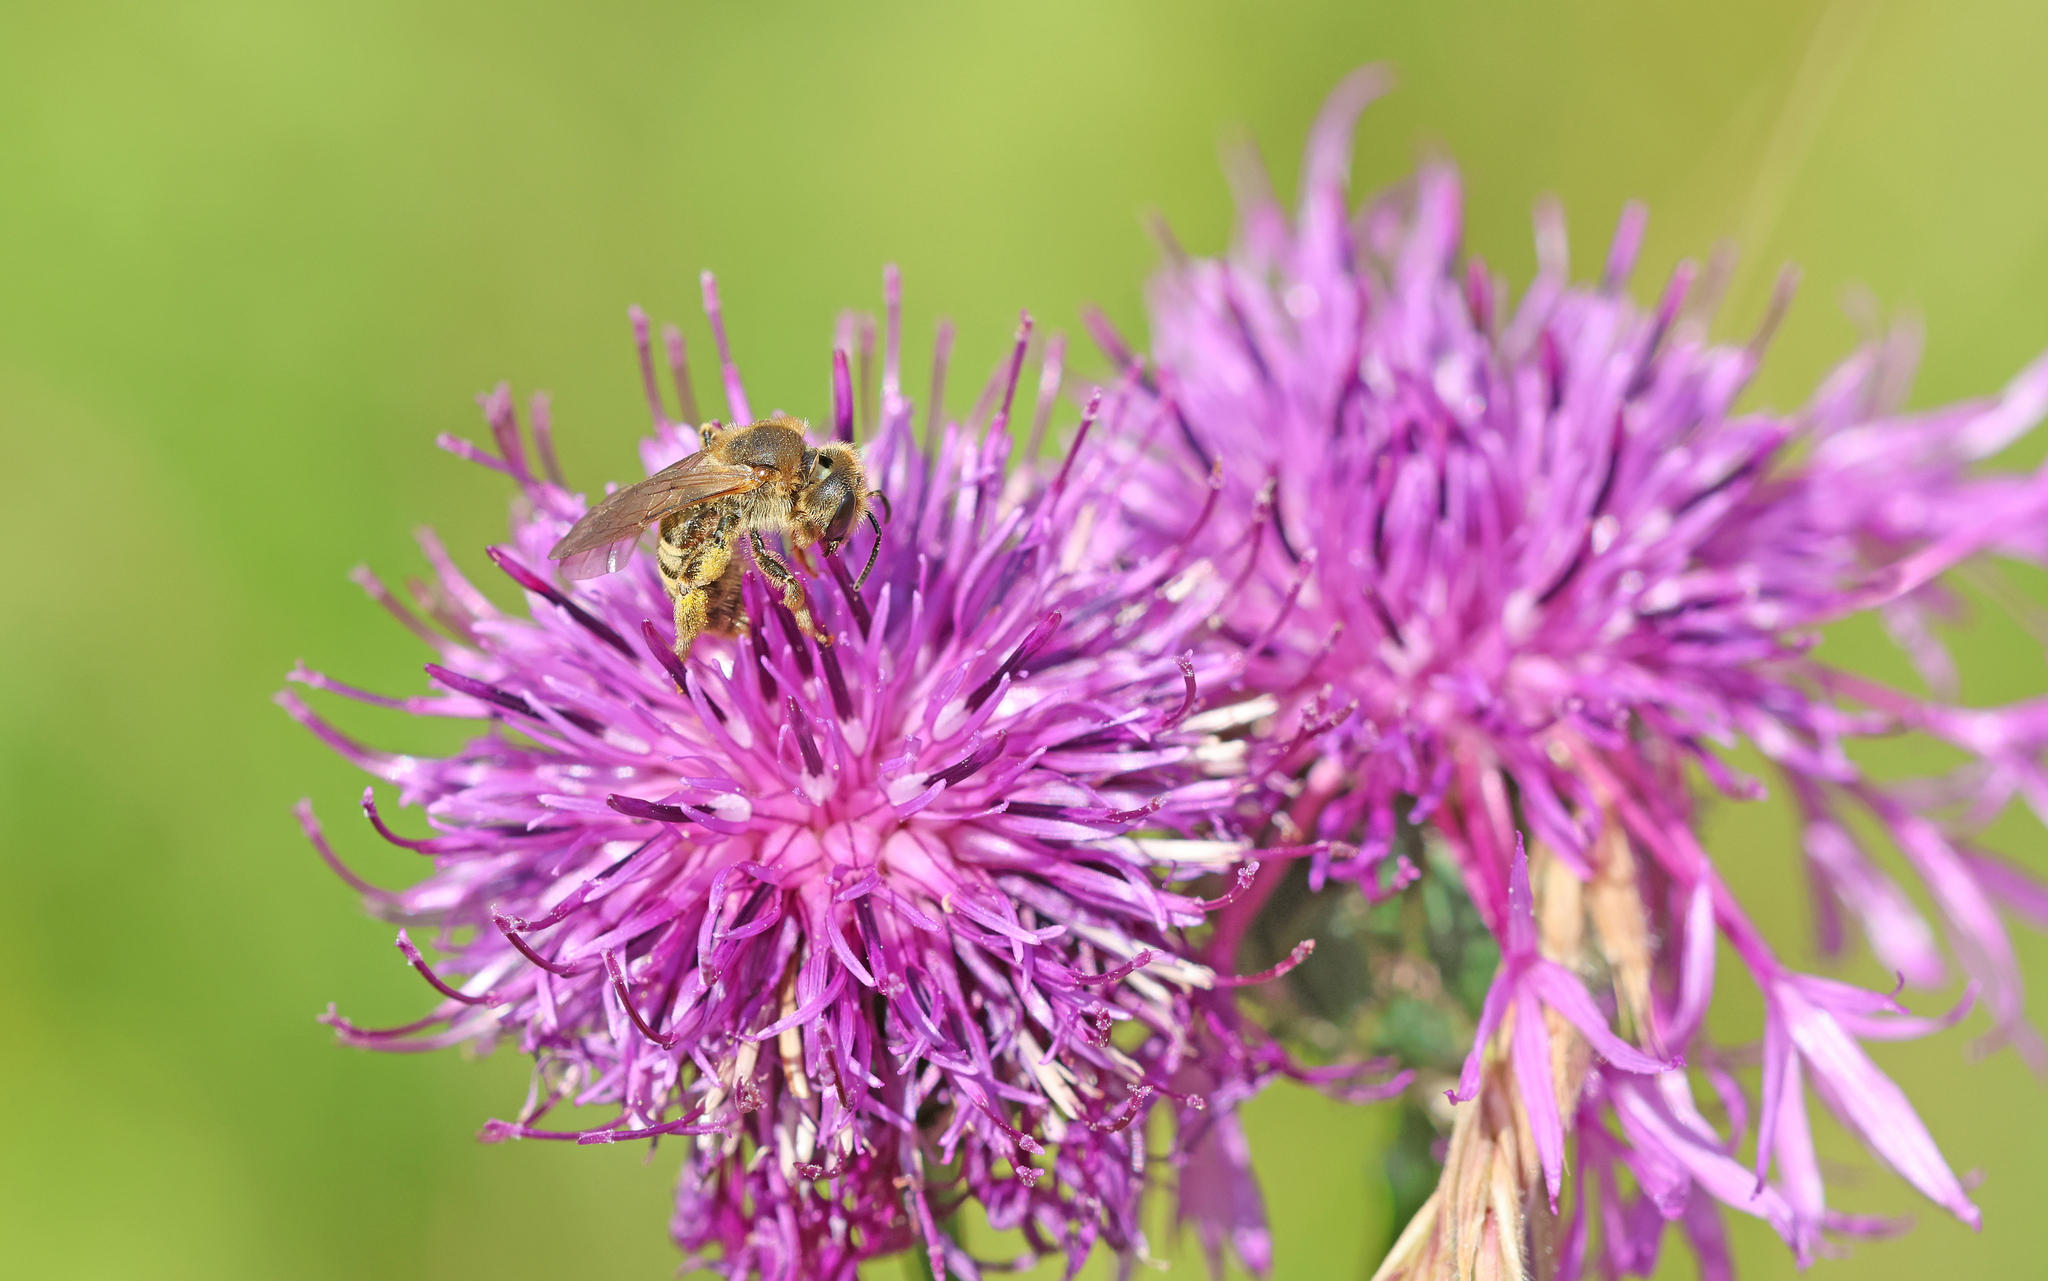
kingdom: Animalia
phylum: Arthropoda
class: Insecta
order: Hymenoptera
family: Halictidae
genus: Halictus
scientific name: Halictus scabiosae
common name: Great banded furrow bee
